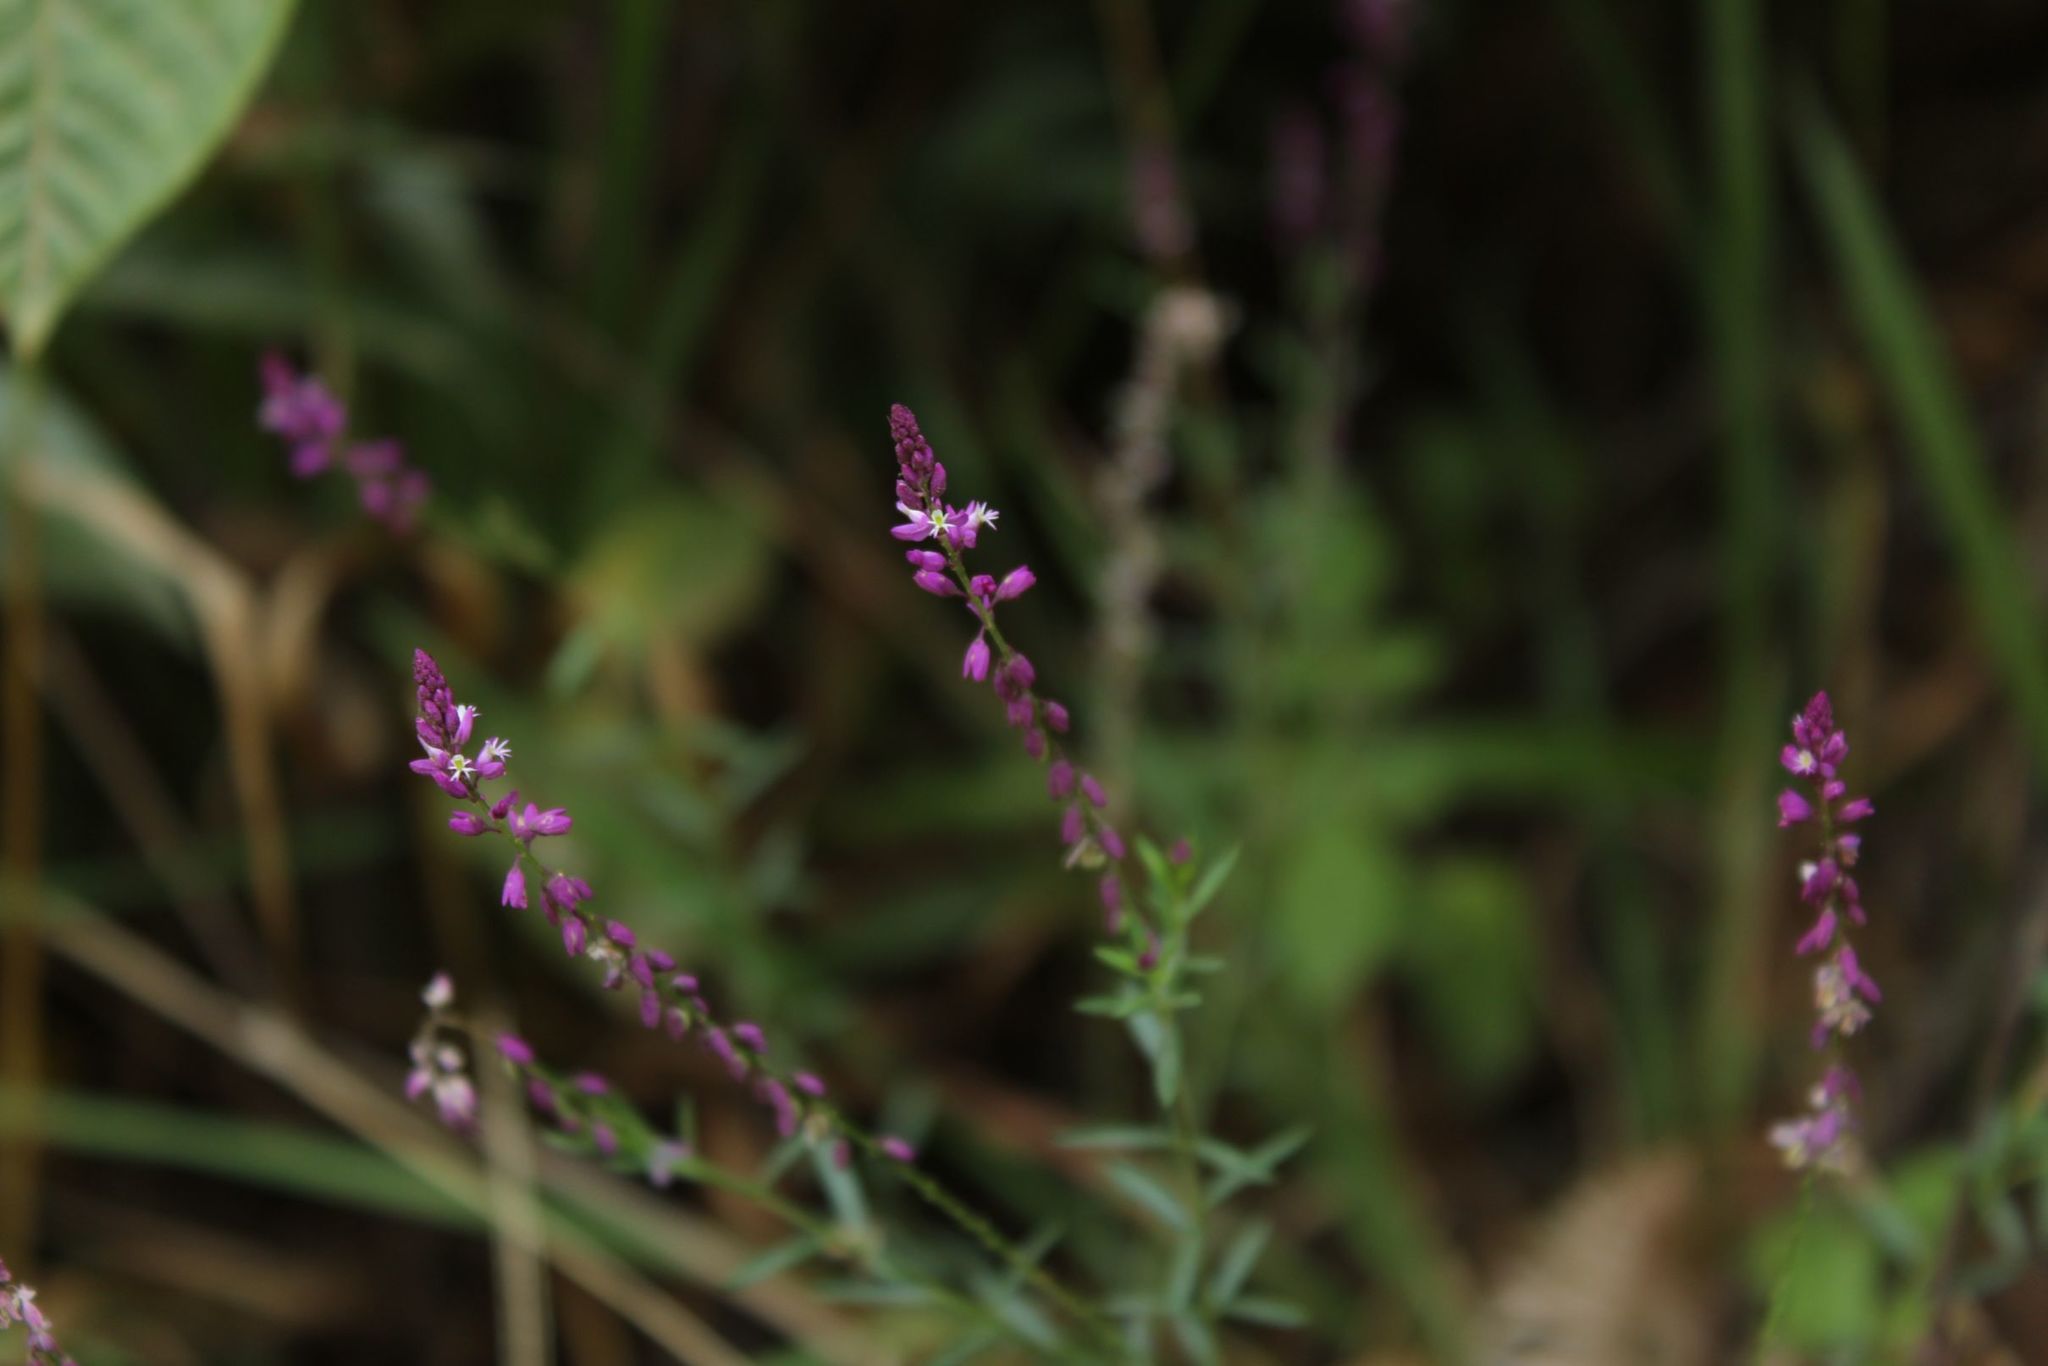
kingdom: Plantae
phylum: Tracheophyta
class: Magnoliopsida
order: Fabales
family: Polygalaceae
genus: Polygala
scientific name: Polygala paniculata
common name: Orosne
